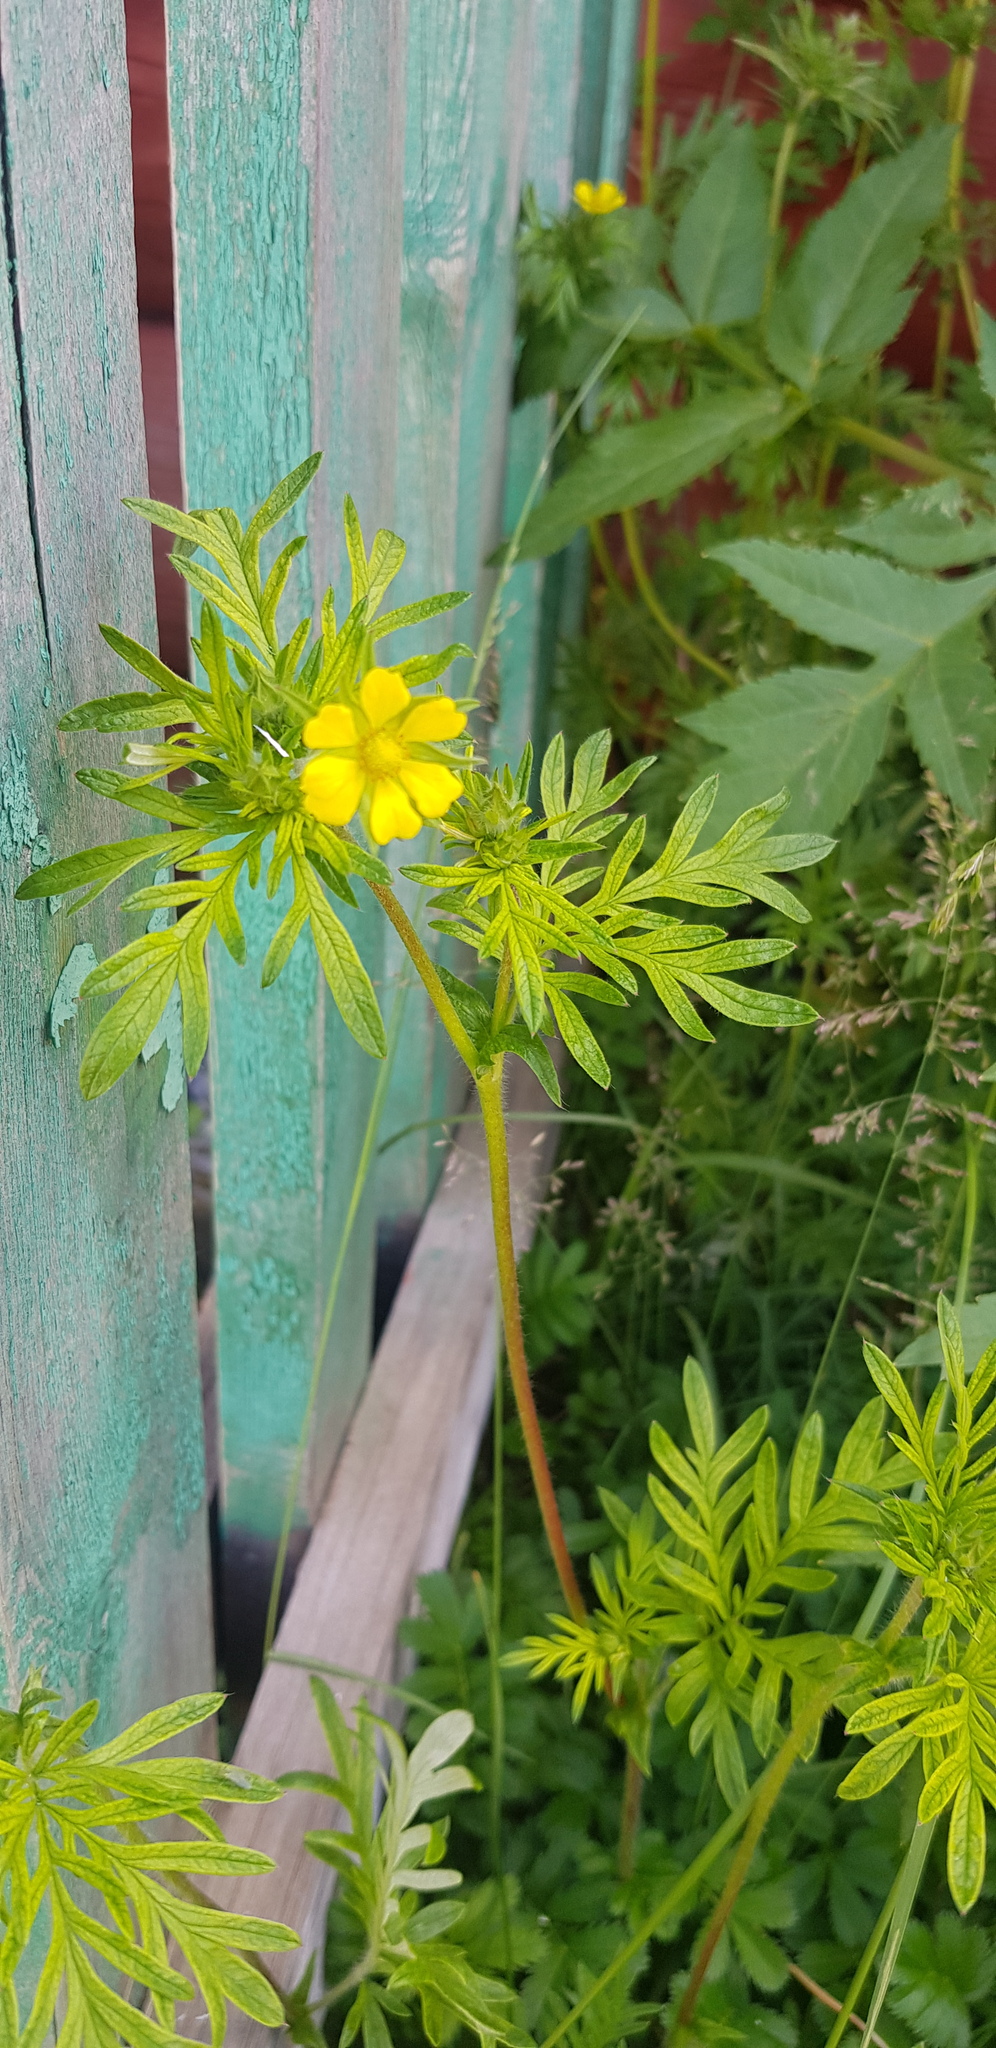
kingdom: Plantae
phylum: Tracheophyta
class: Magnoliopsida
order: Rosales
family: Rosaceae
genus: Potentilla
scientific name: Potentilla tergemina
